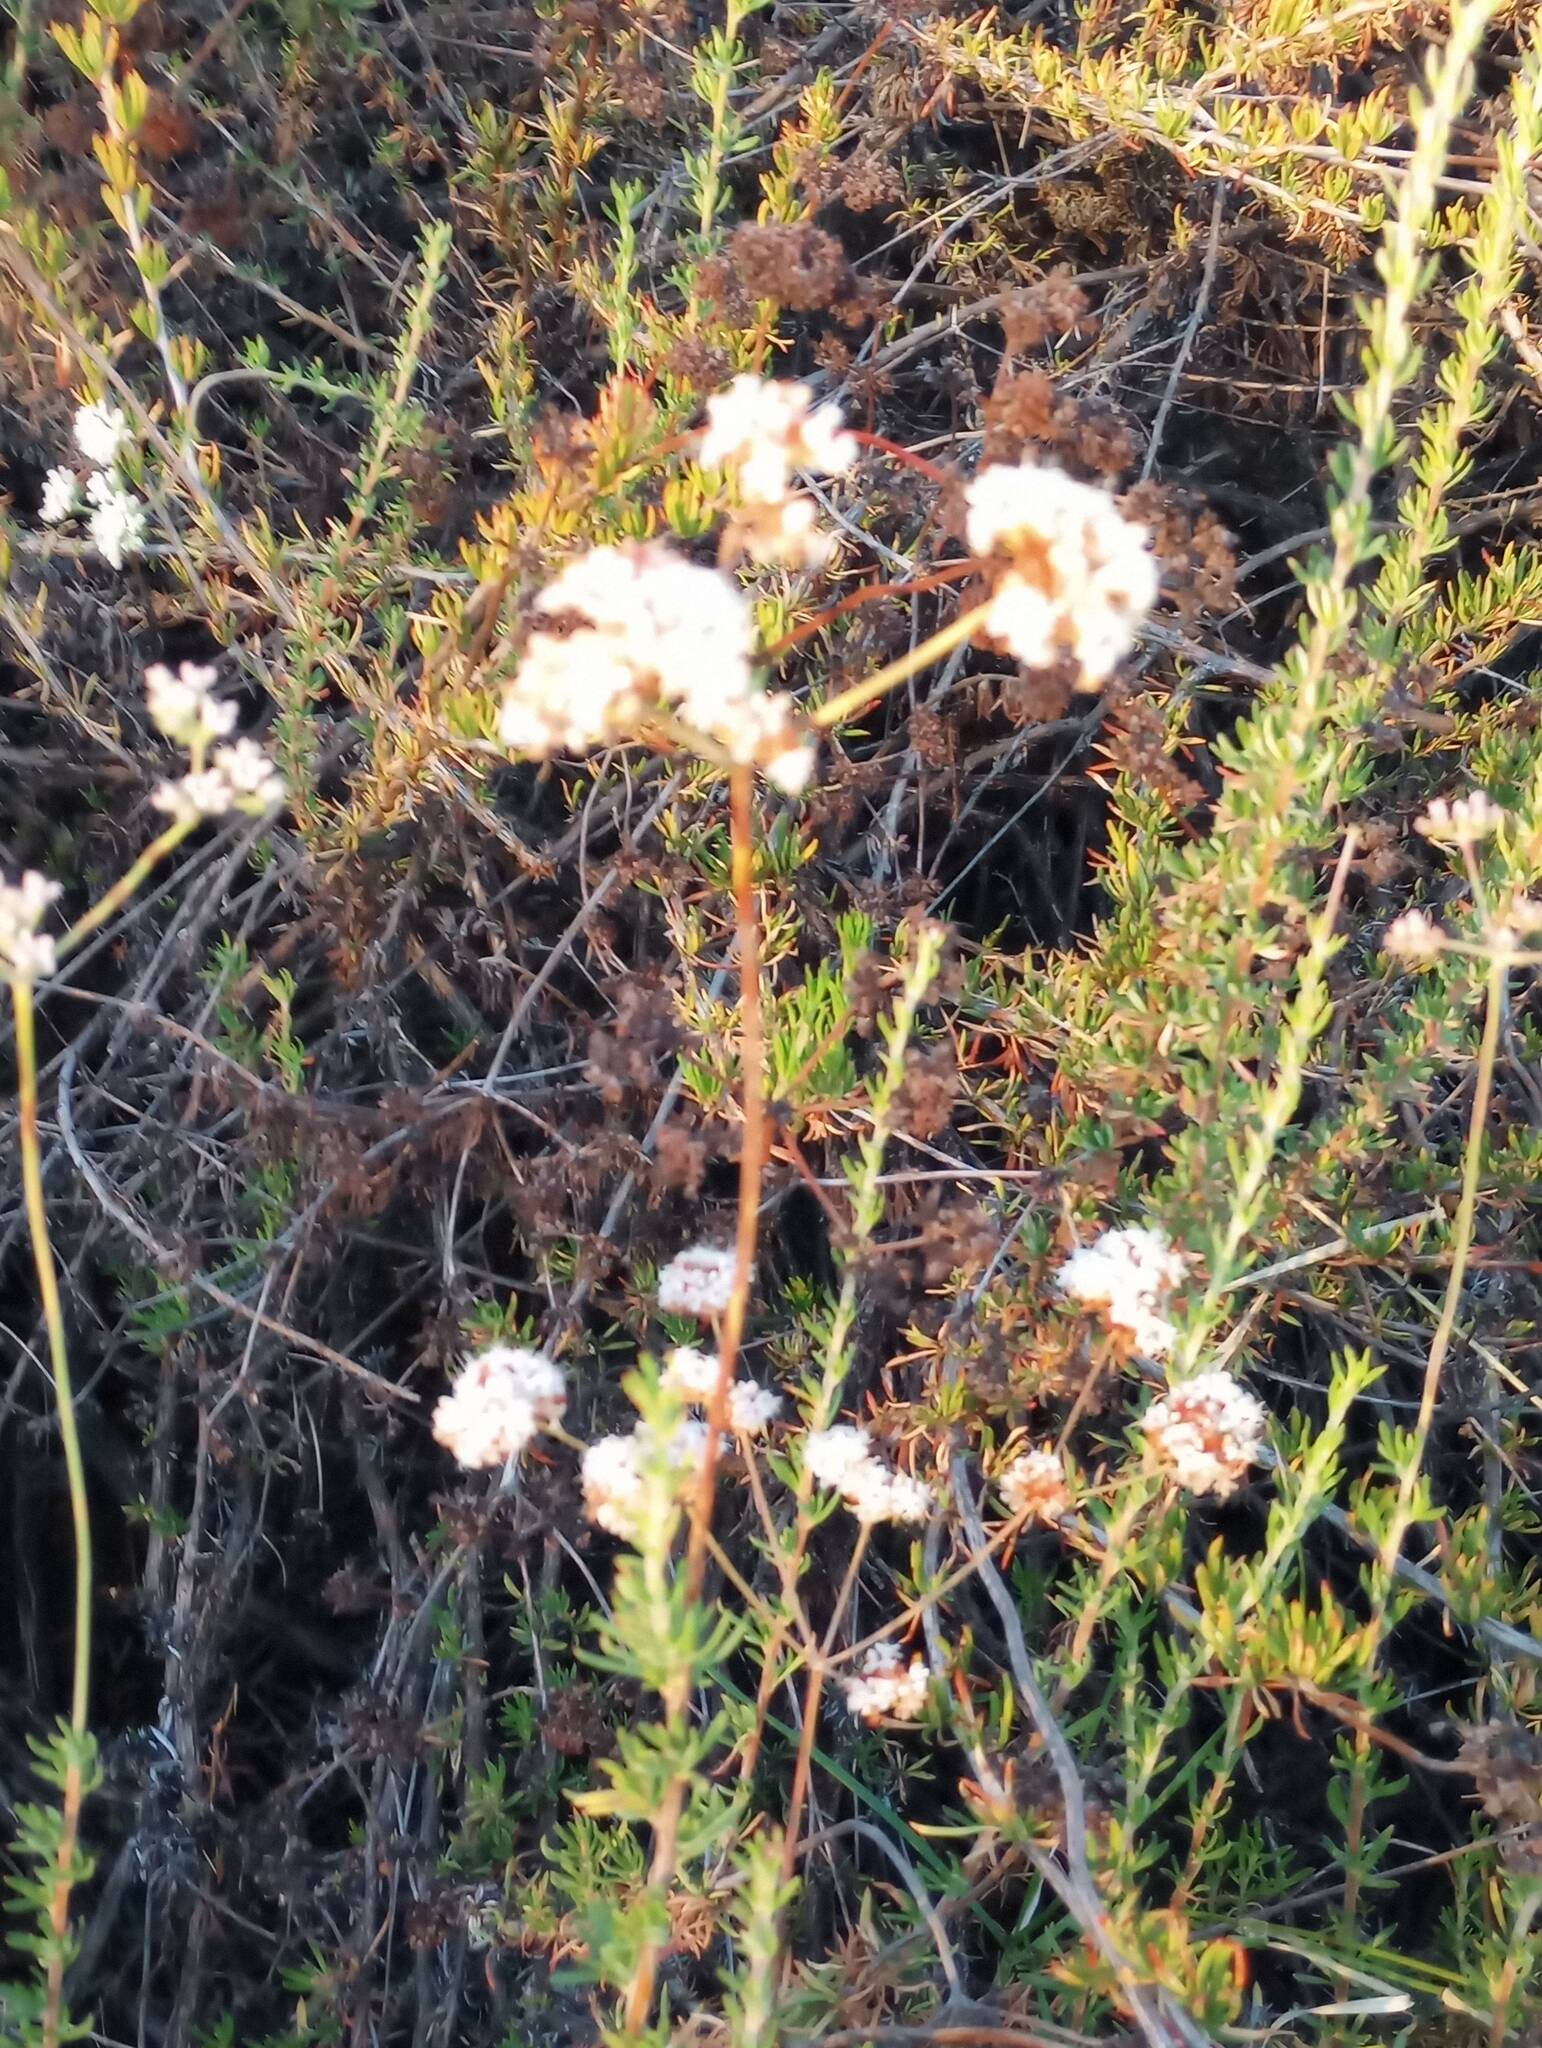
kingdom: Plantae
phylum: Tracheophyta
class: Magnoliopsida
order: Caryophyllales
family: Polygonaceae
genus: Eriogonum
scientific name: Eriogonum fasciculatum
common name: California wild buckwheat
